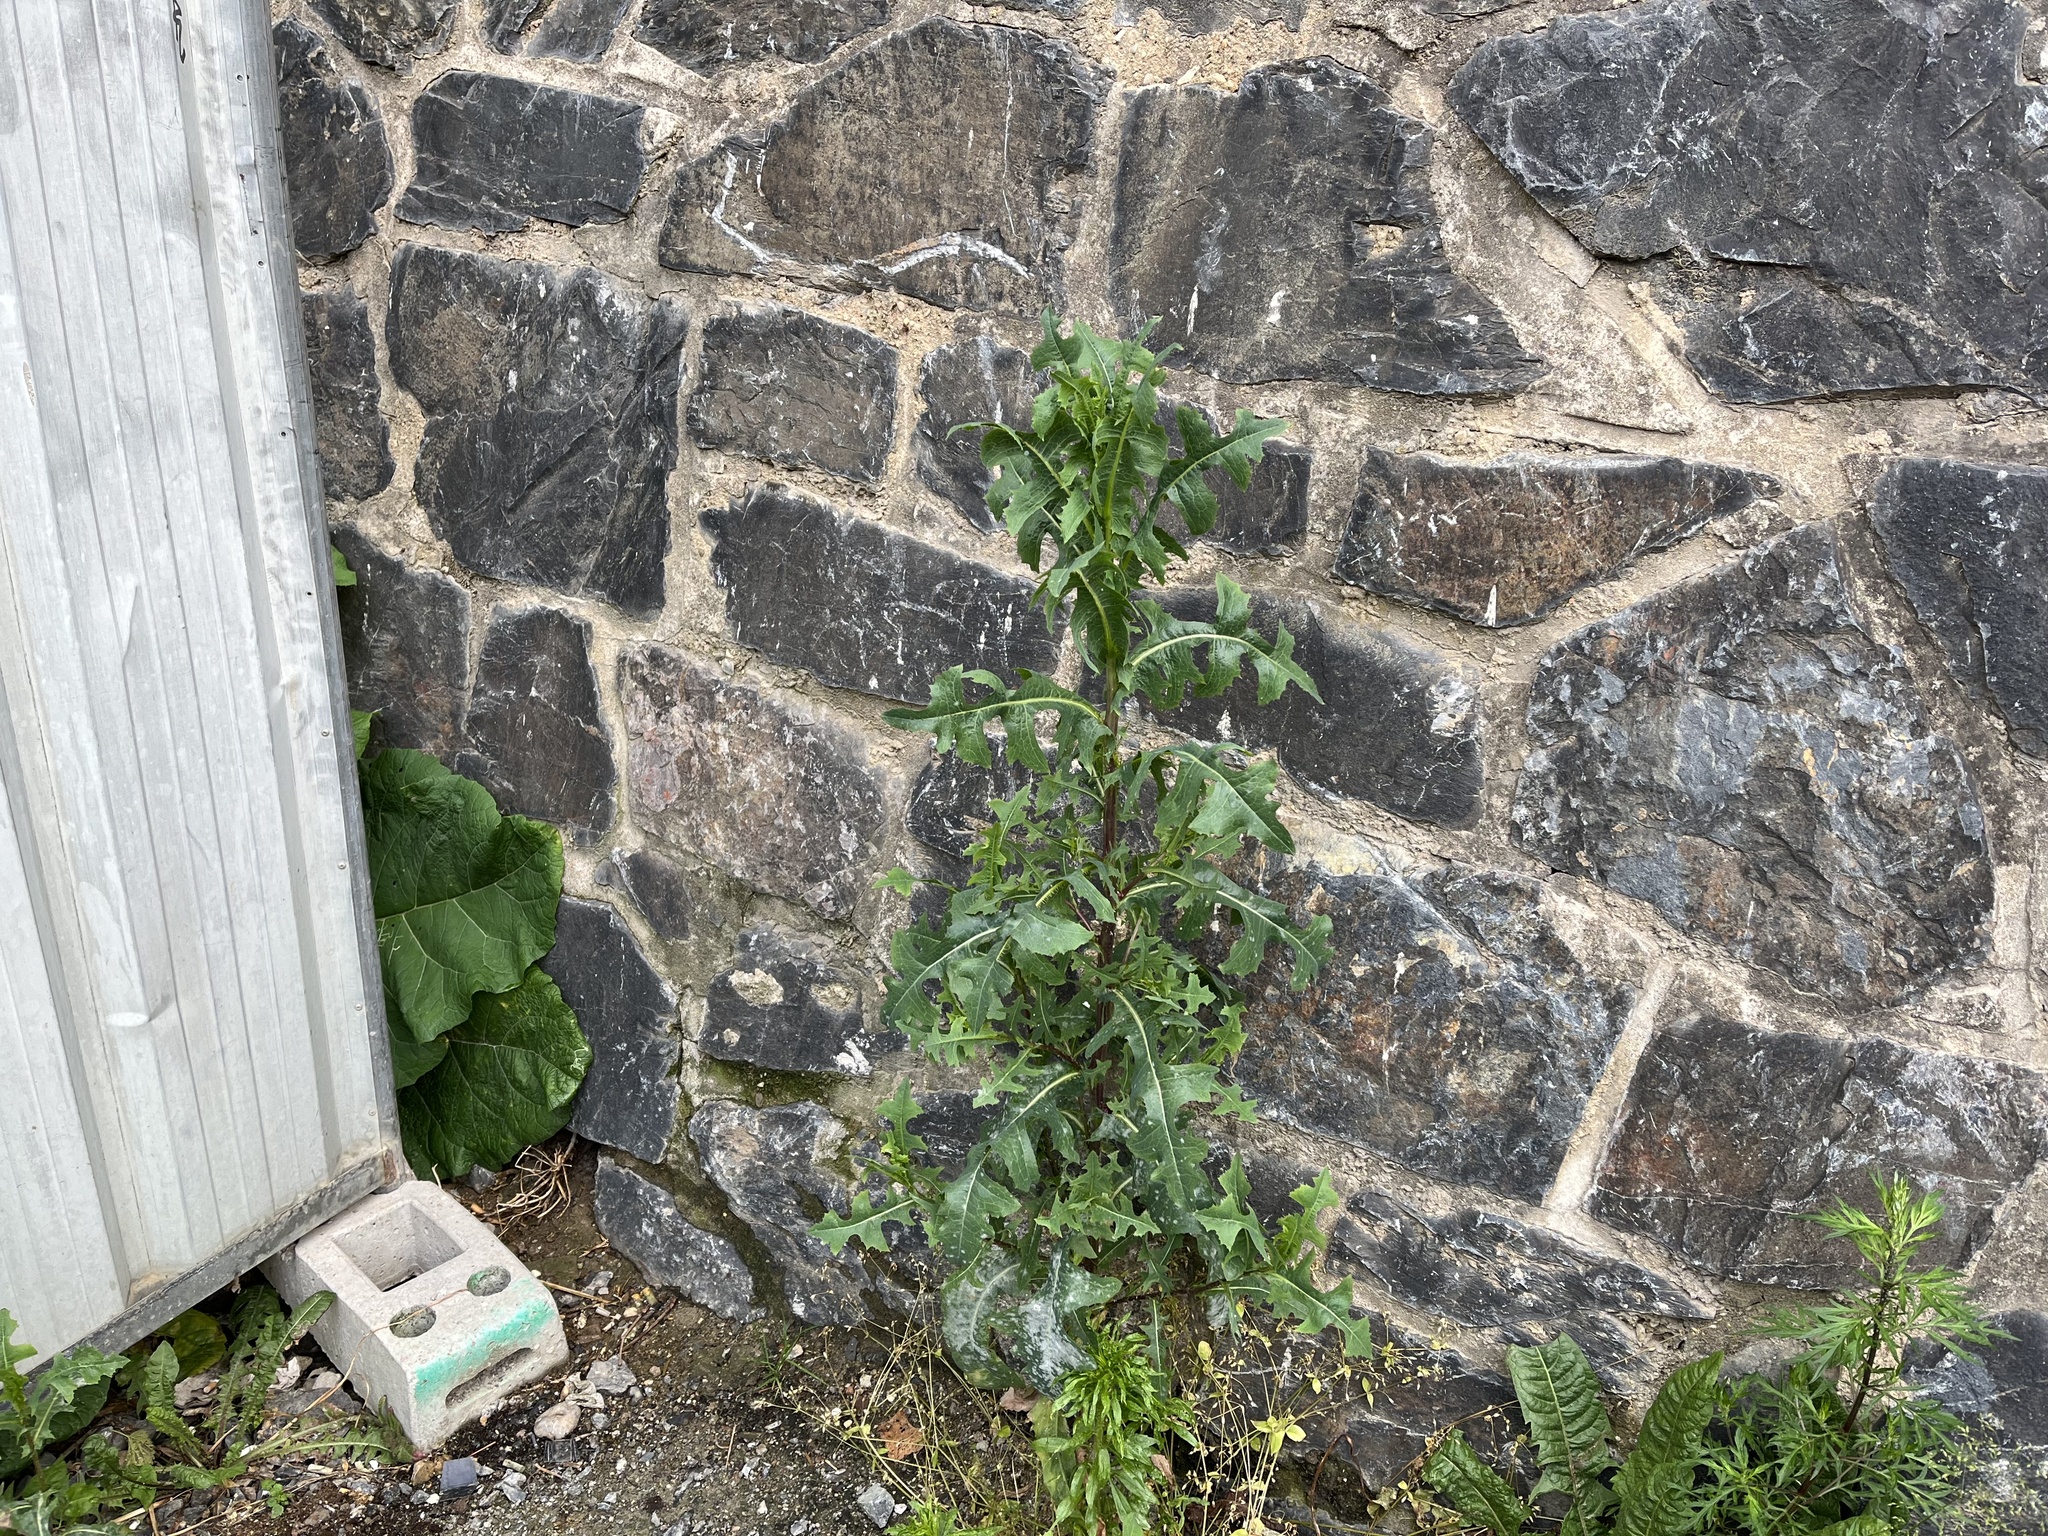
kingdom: Plantae
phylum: Tracheophyta
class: Magnoliopsida
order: Asterales
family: Asteraceae
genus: Lactuca
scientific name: Lactuca serriola
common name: Prickly lettuce
